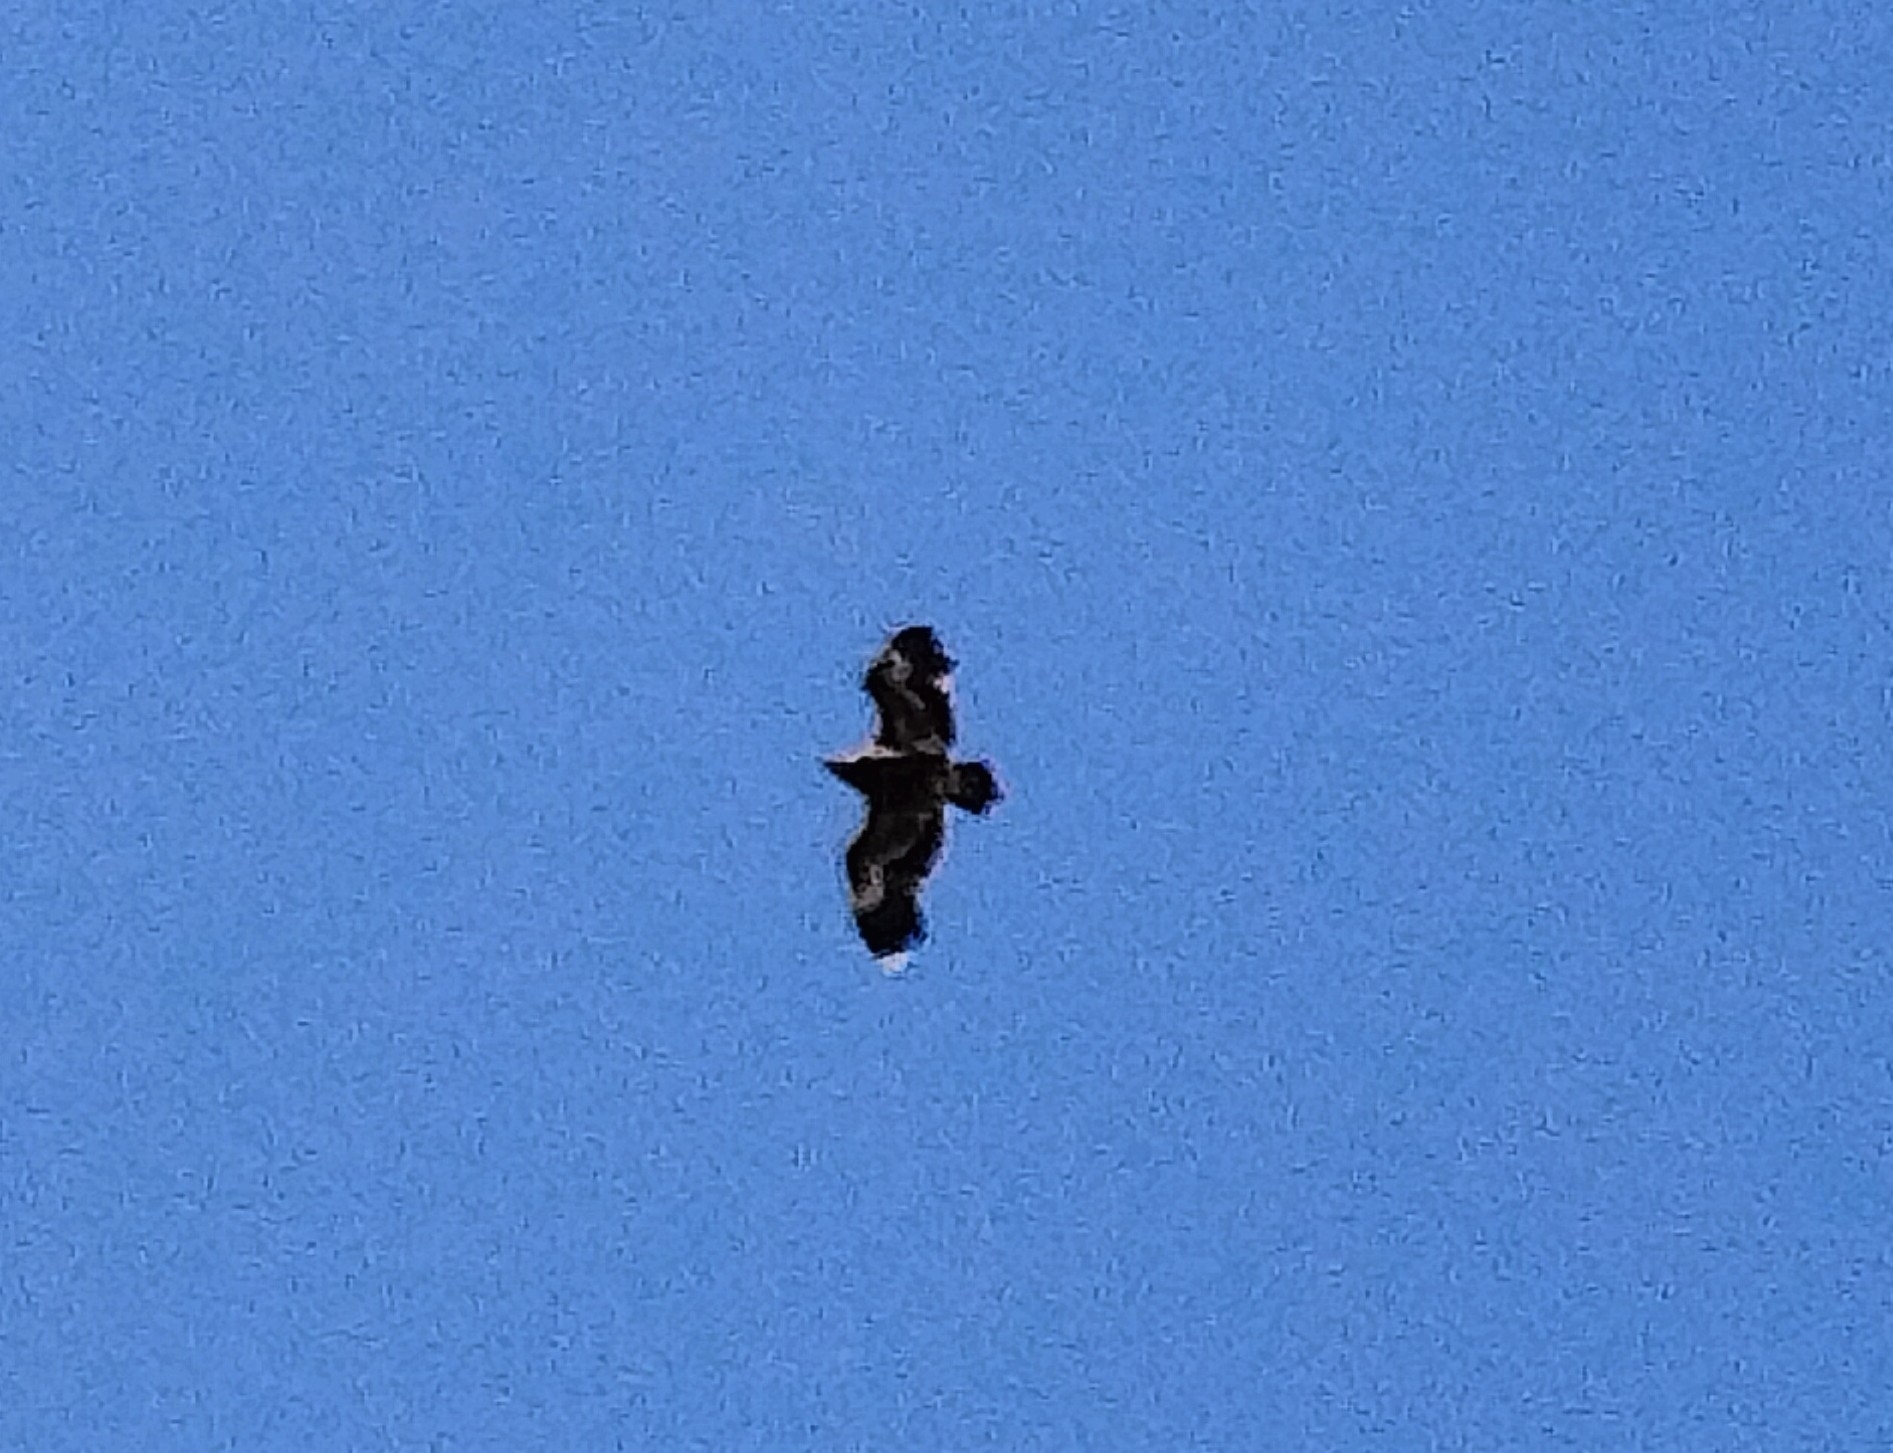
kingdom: Animalia
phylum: Chordata
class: Aves
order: Accipitriformes
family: Accipitridae
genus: Aquila
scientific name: Aquila nipalensis
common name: Steppe eagle
